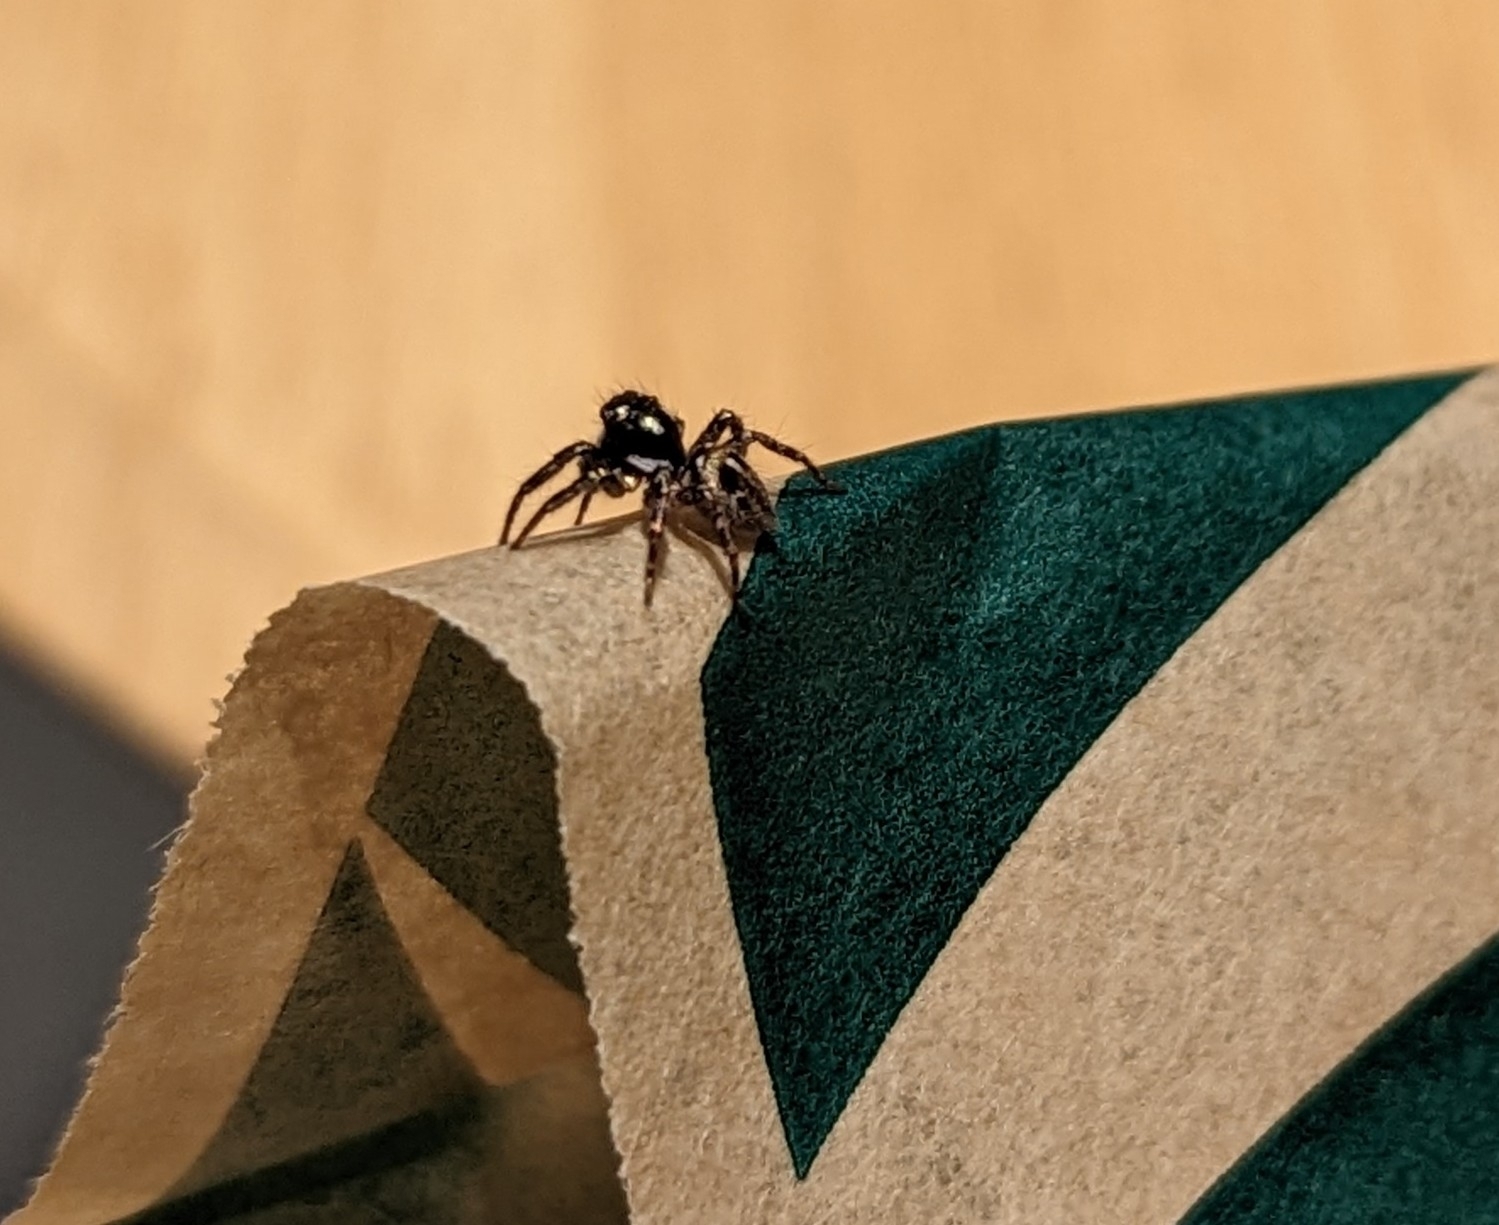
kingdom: Animalia
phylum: Arthropoda
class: Arachnida
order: Araneae
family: Salticidae
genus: Anasaitis
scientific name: Anasaitis canosa
